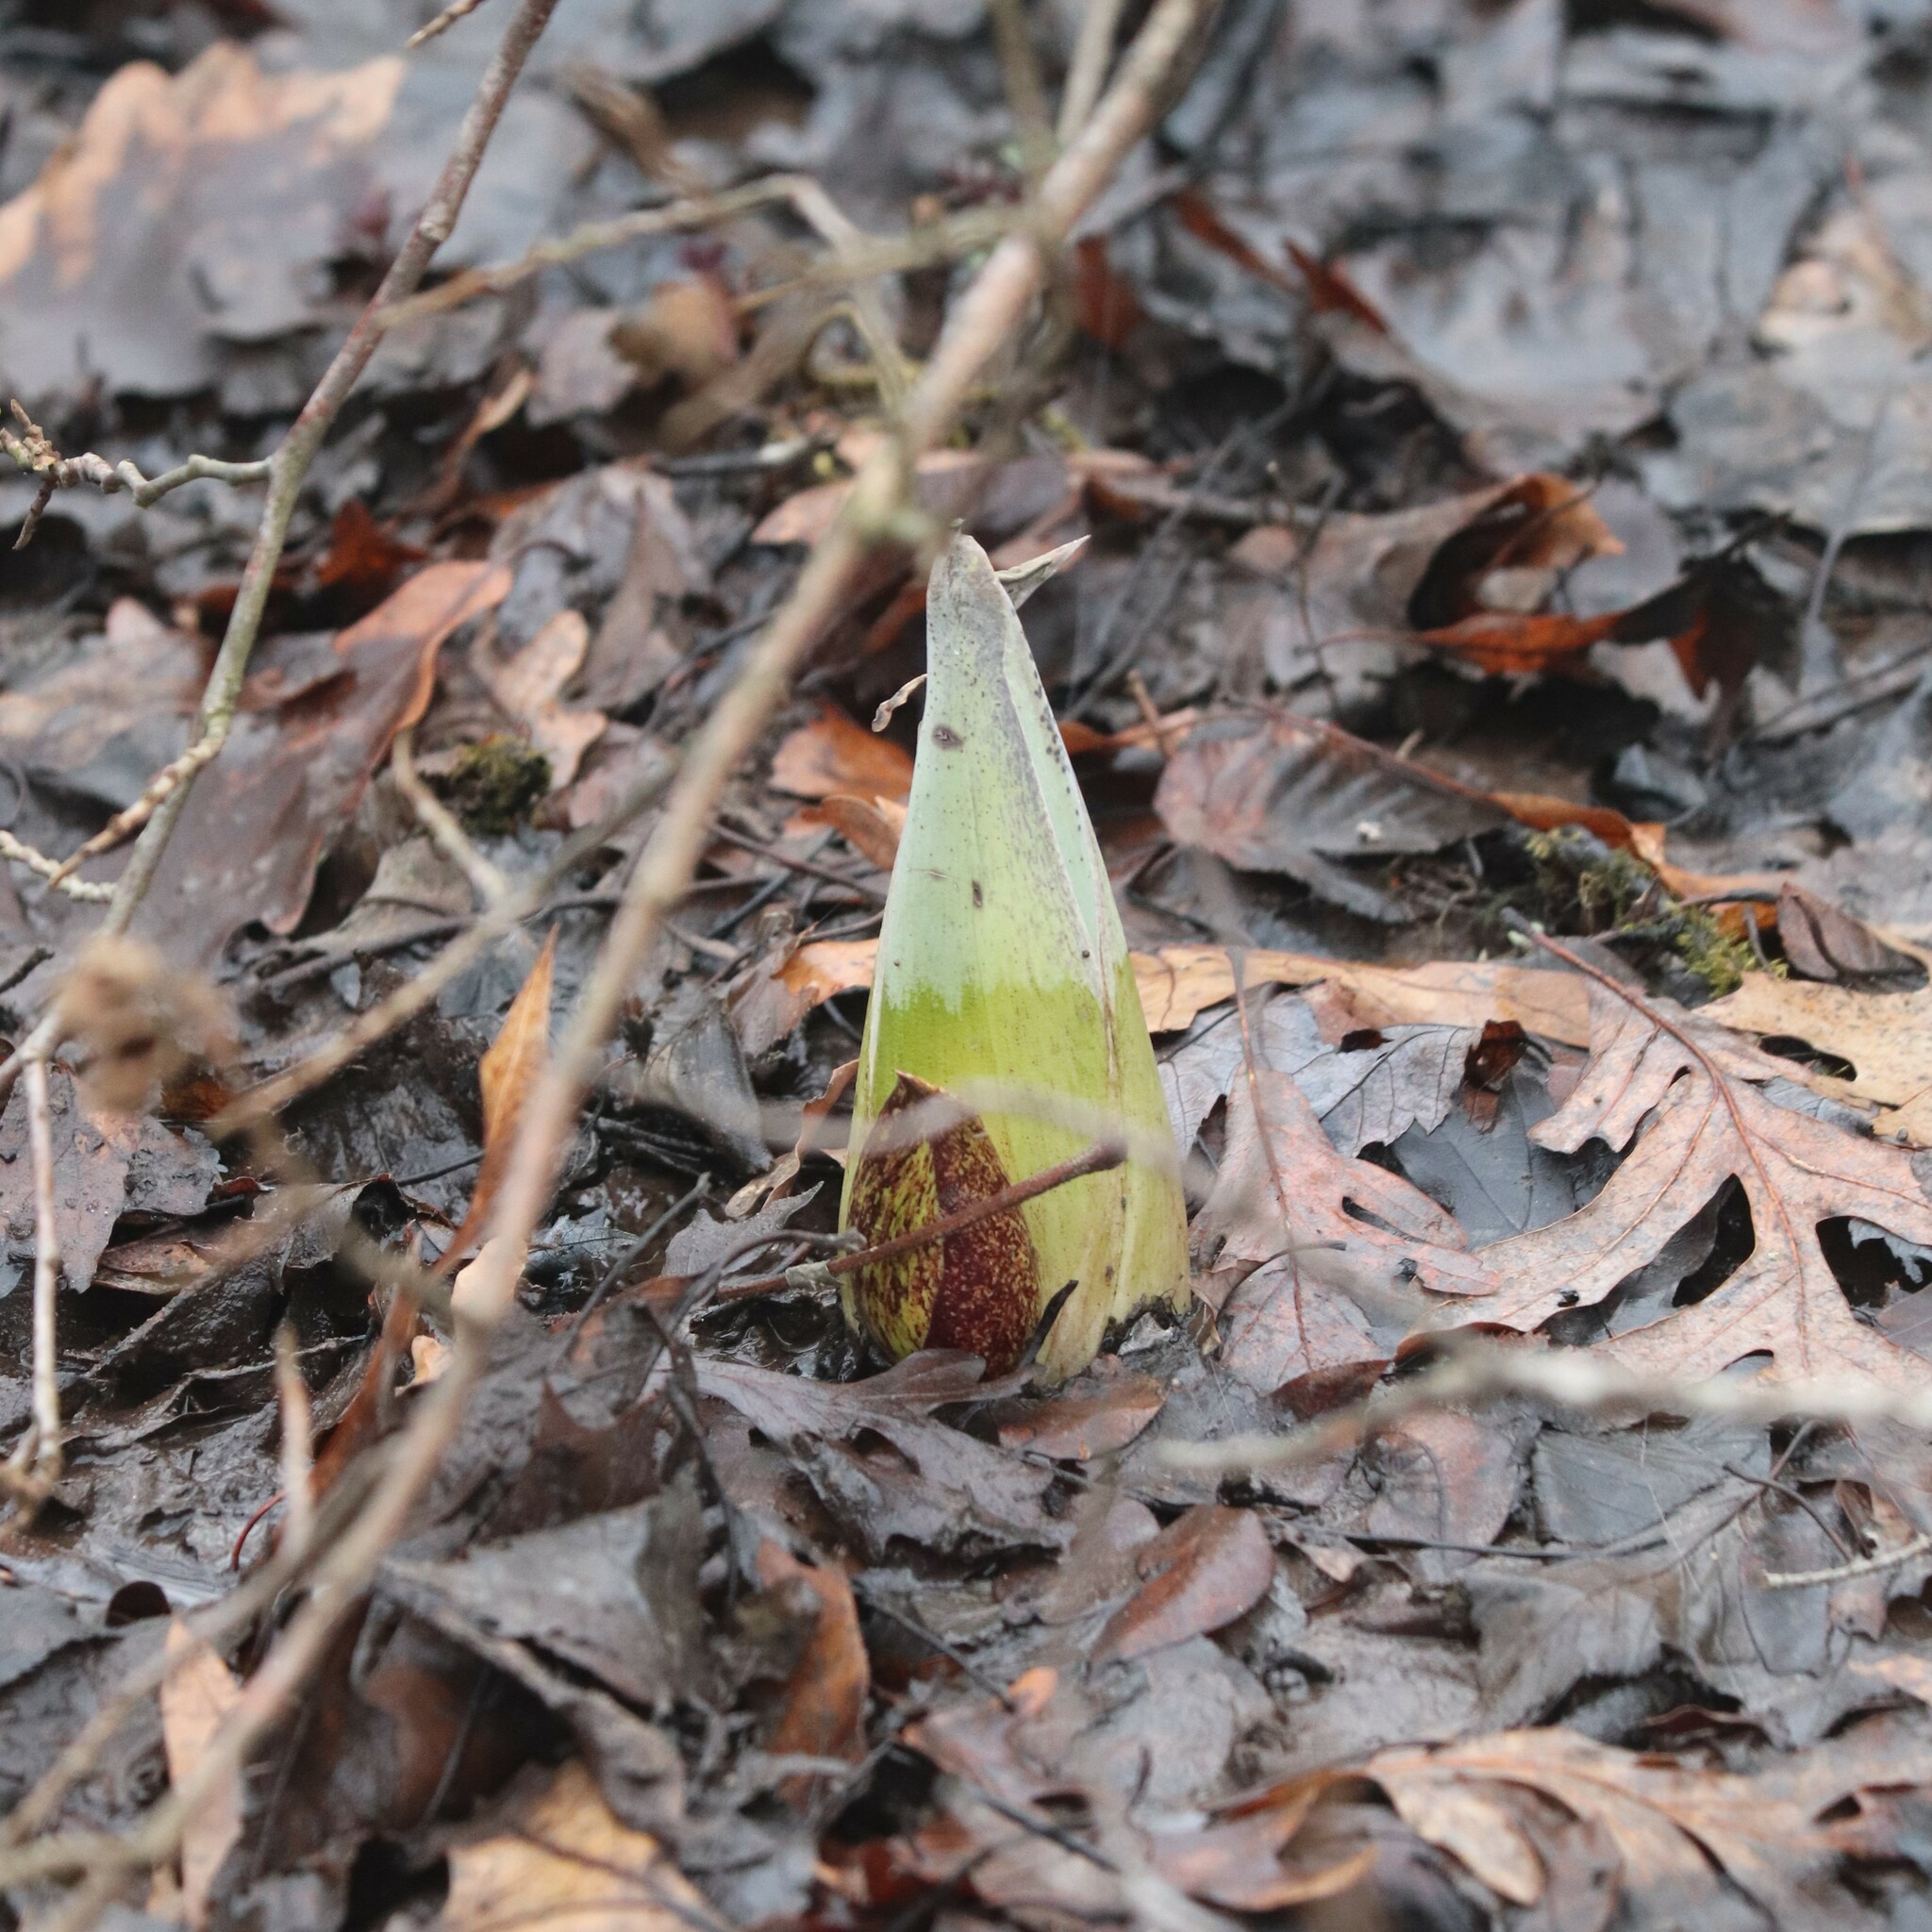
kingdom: Plantae
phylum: Tracheophyta
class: Liliopsida
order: Alismatales
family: Araceae
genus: Symplocarpus
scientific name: Symplocarpus foetidus
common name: Eastern skunk cabbage
